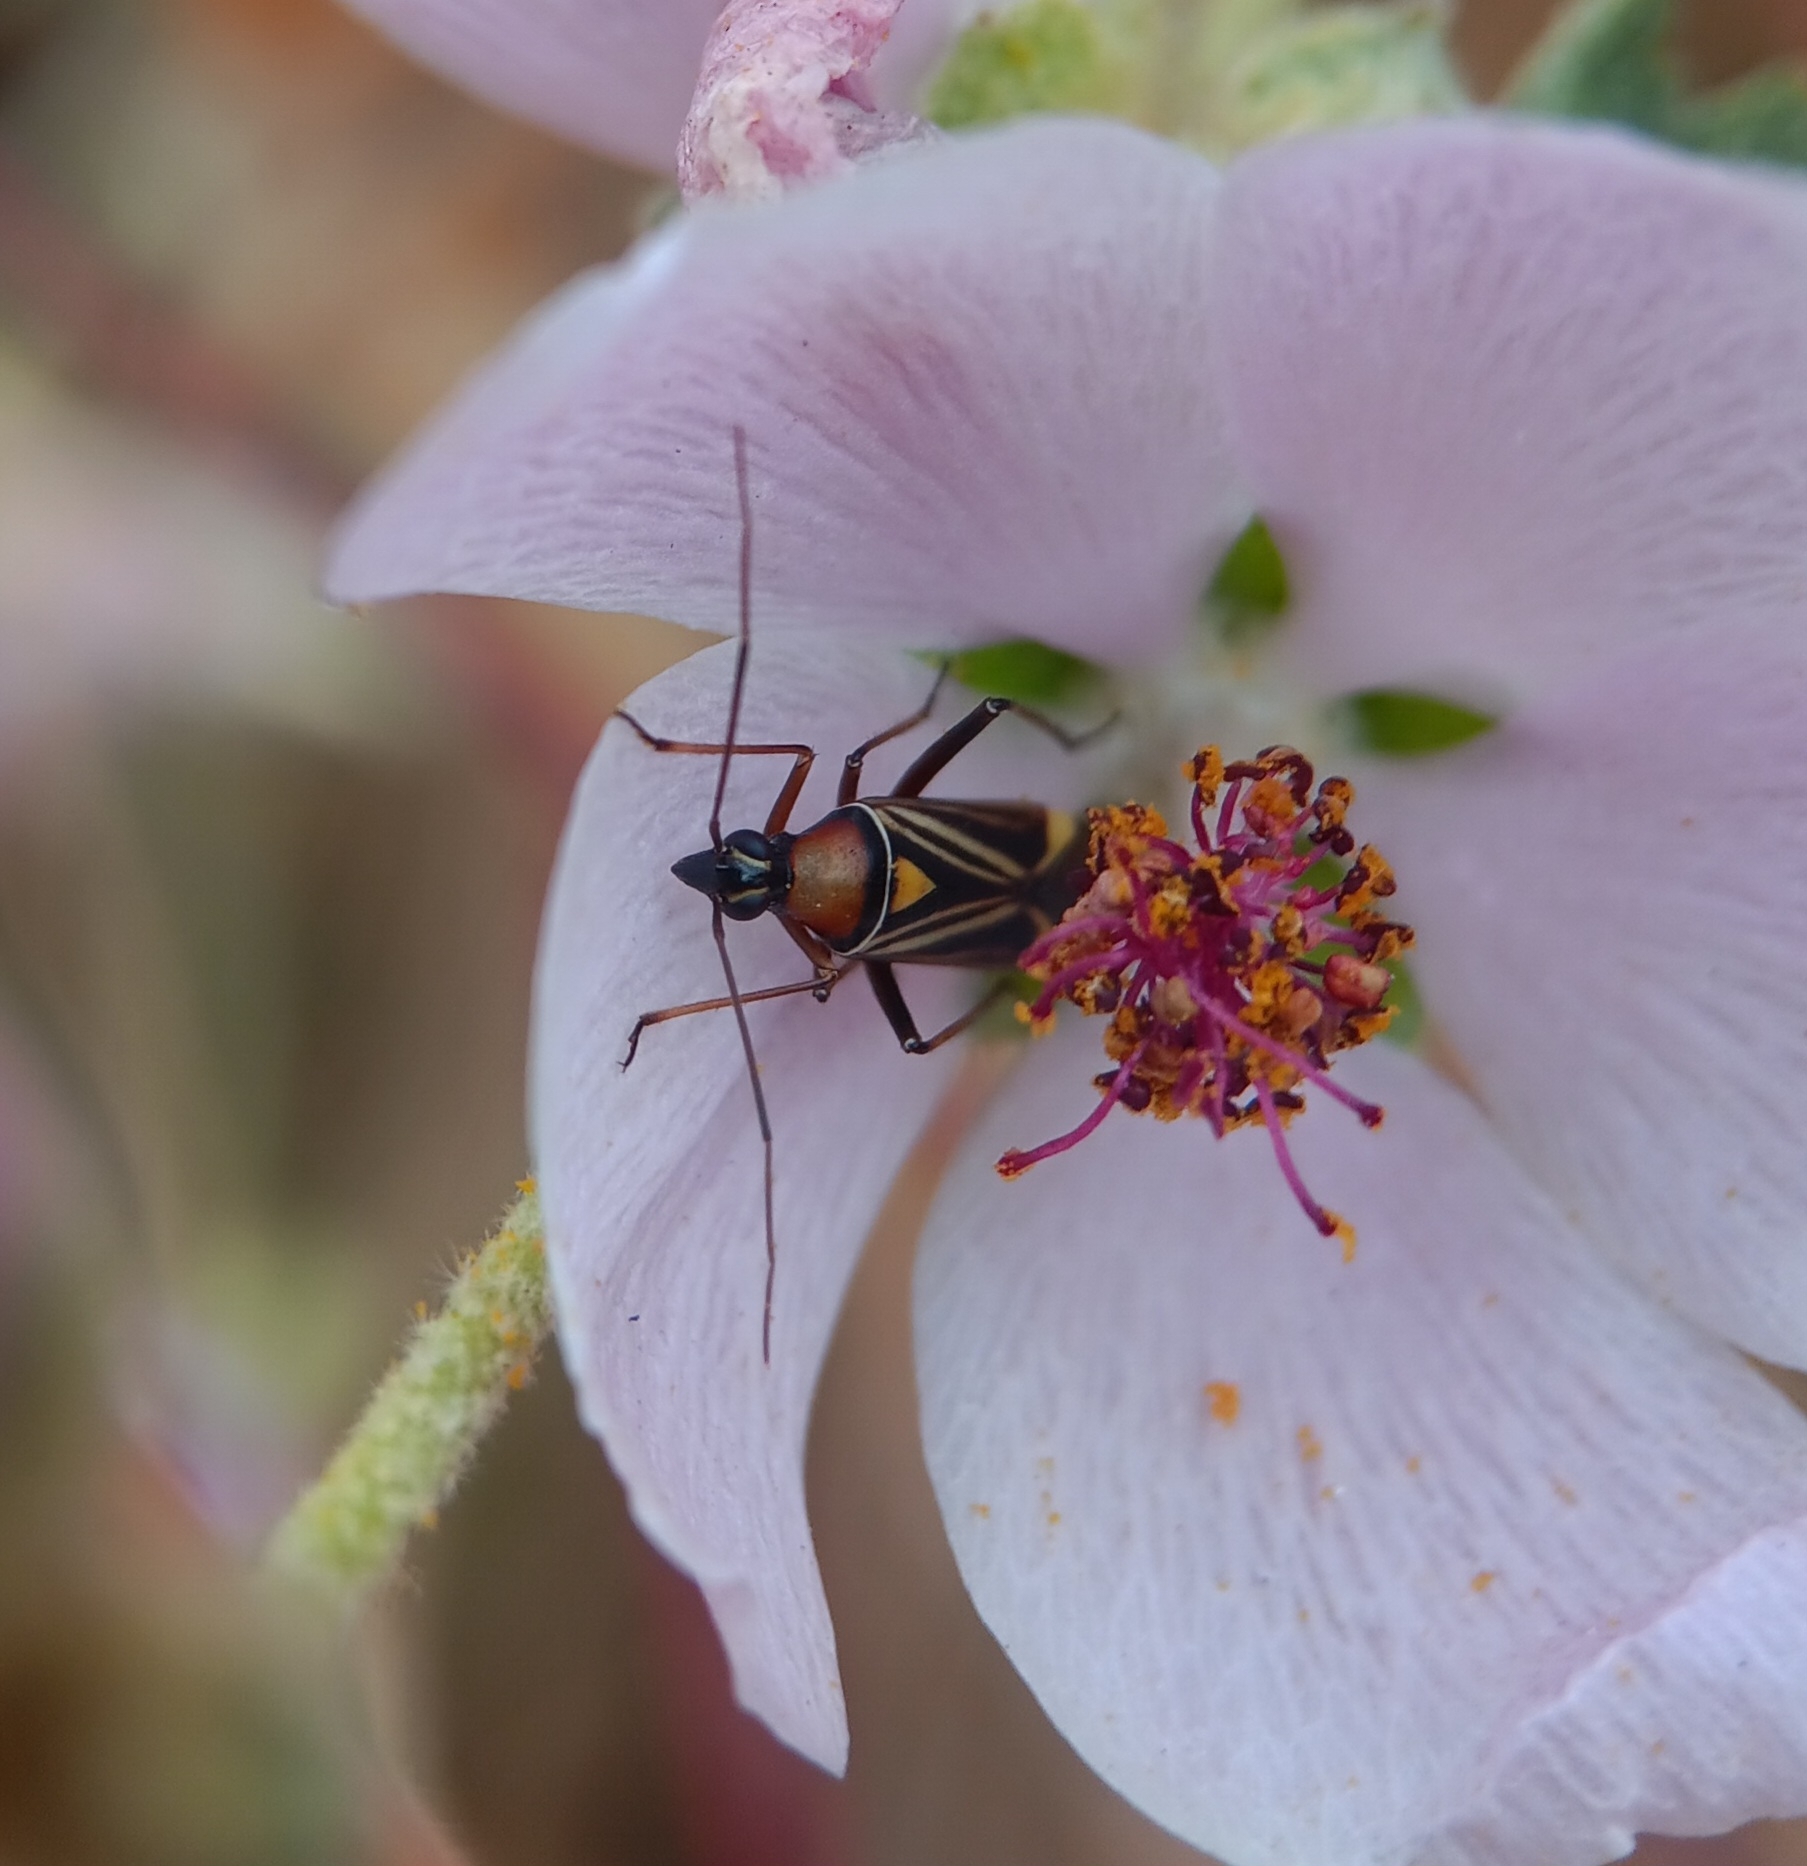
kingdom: Animalia
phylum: Arthropoda
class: Insecta
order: Hemiptera
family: Miridae
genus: Closterocoris
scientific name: Closterocoris amoenus
